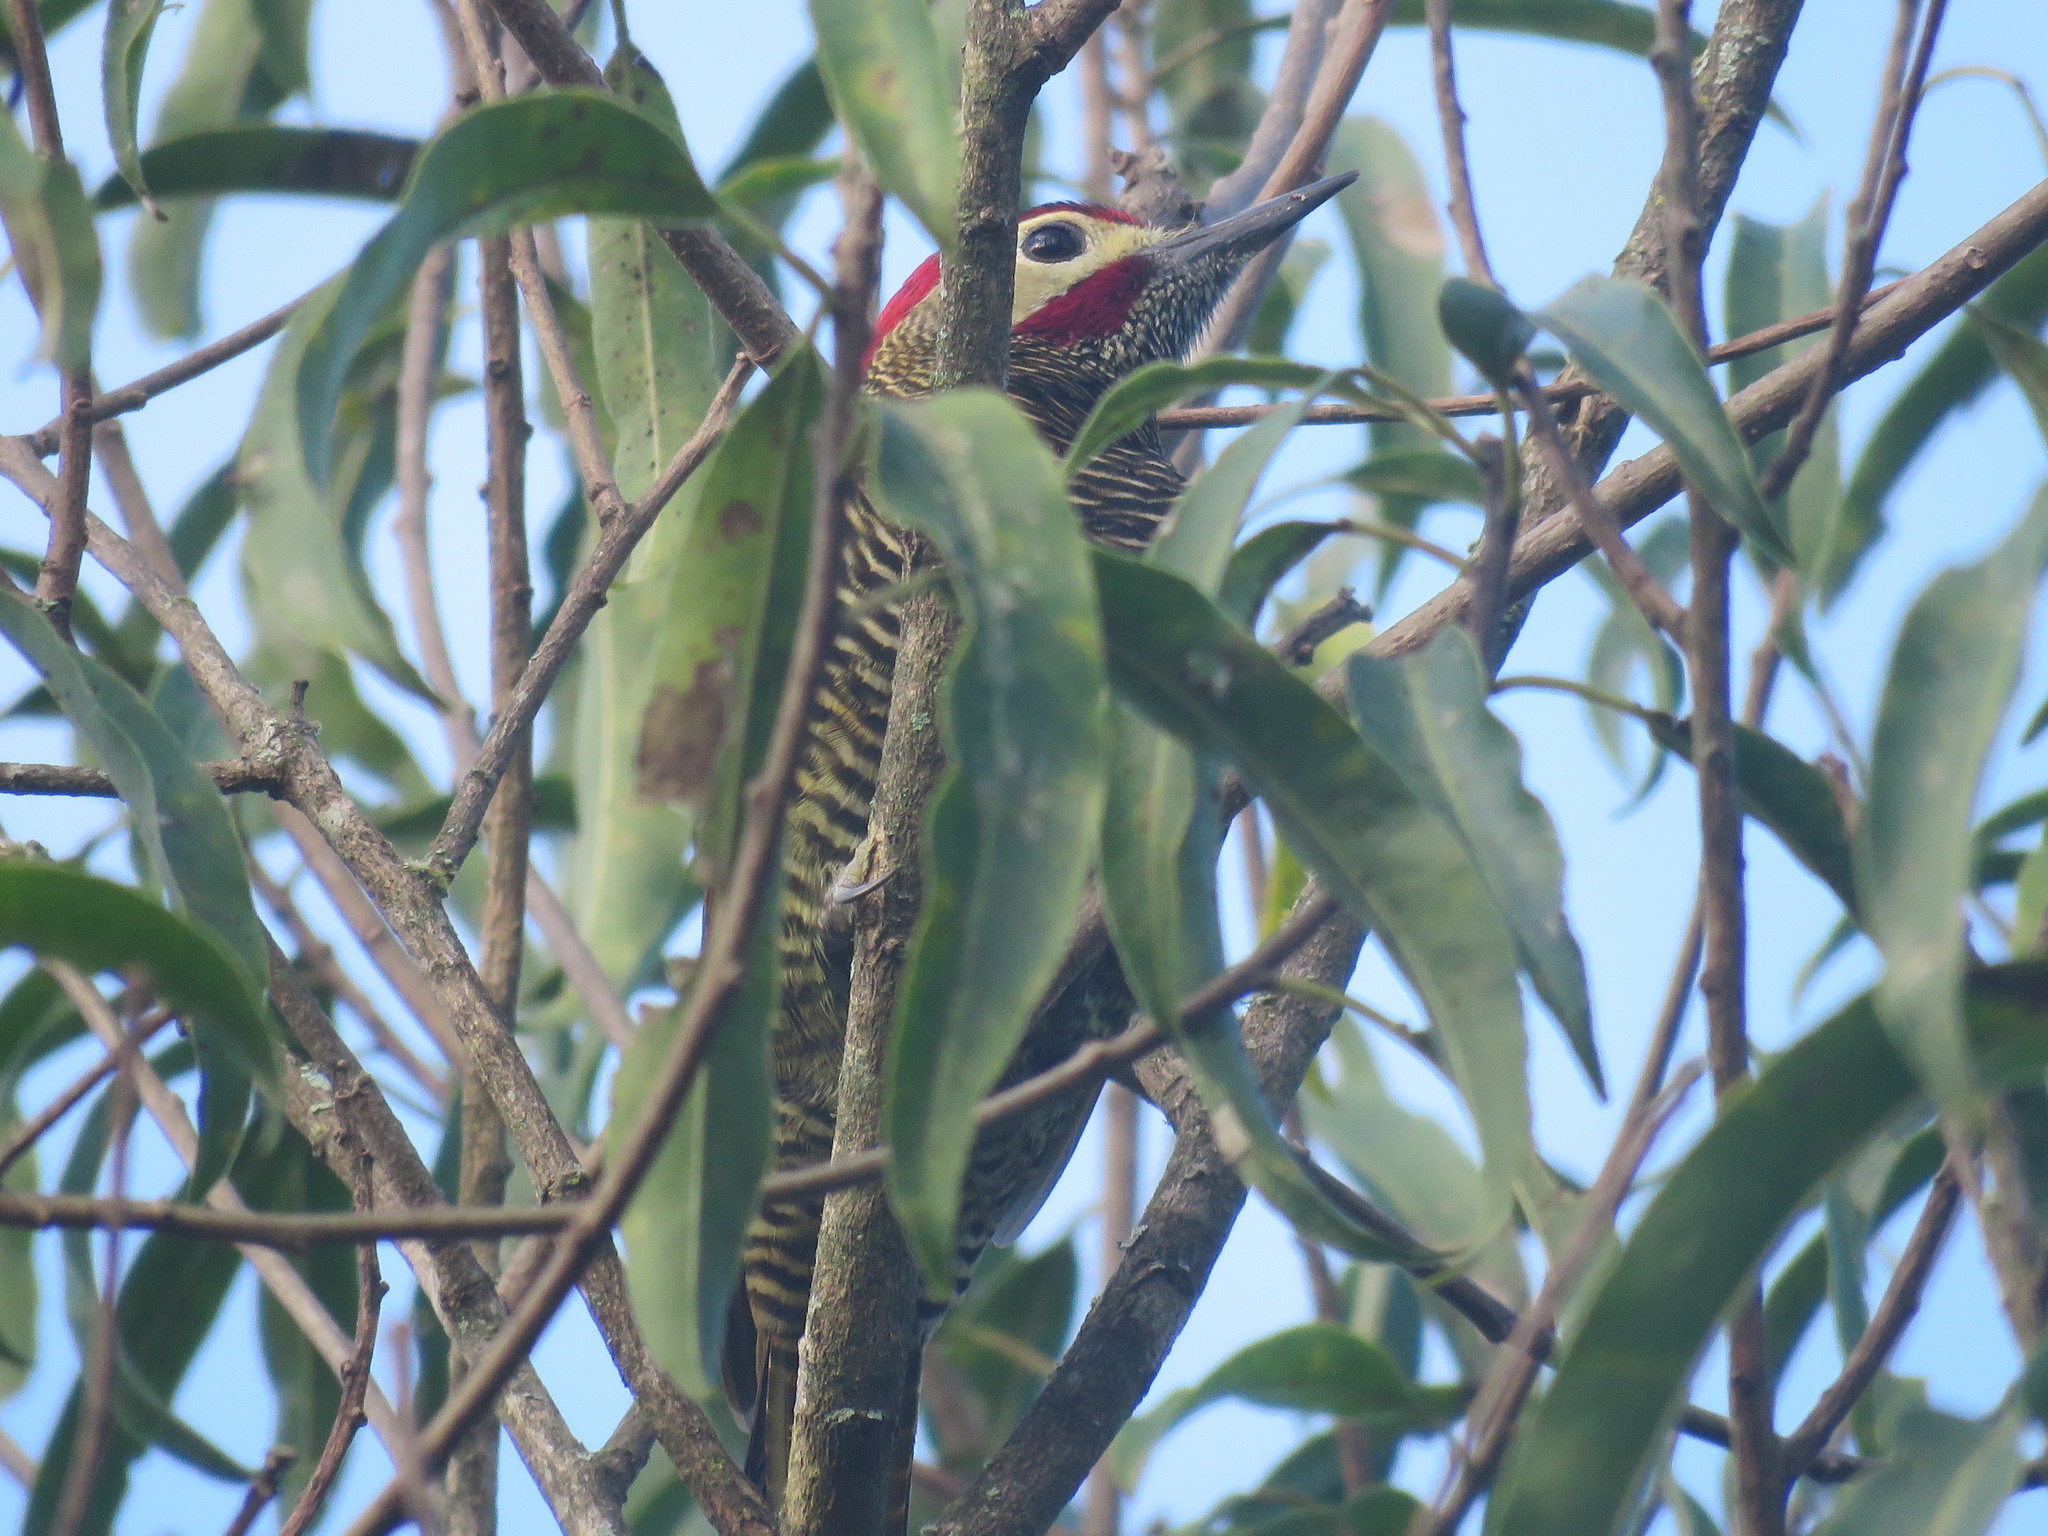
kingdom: Animalia
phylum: Chordata
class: Aves
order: Piciformes
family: Picidae
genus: Colaptes
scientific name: Colaptes rubiginosus
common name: Golden-olive woodpecker
